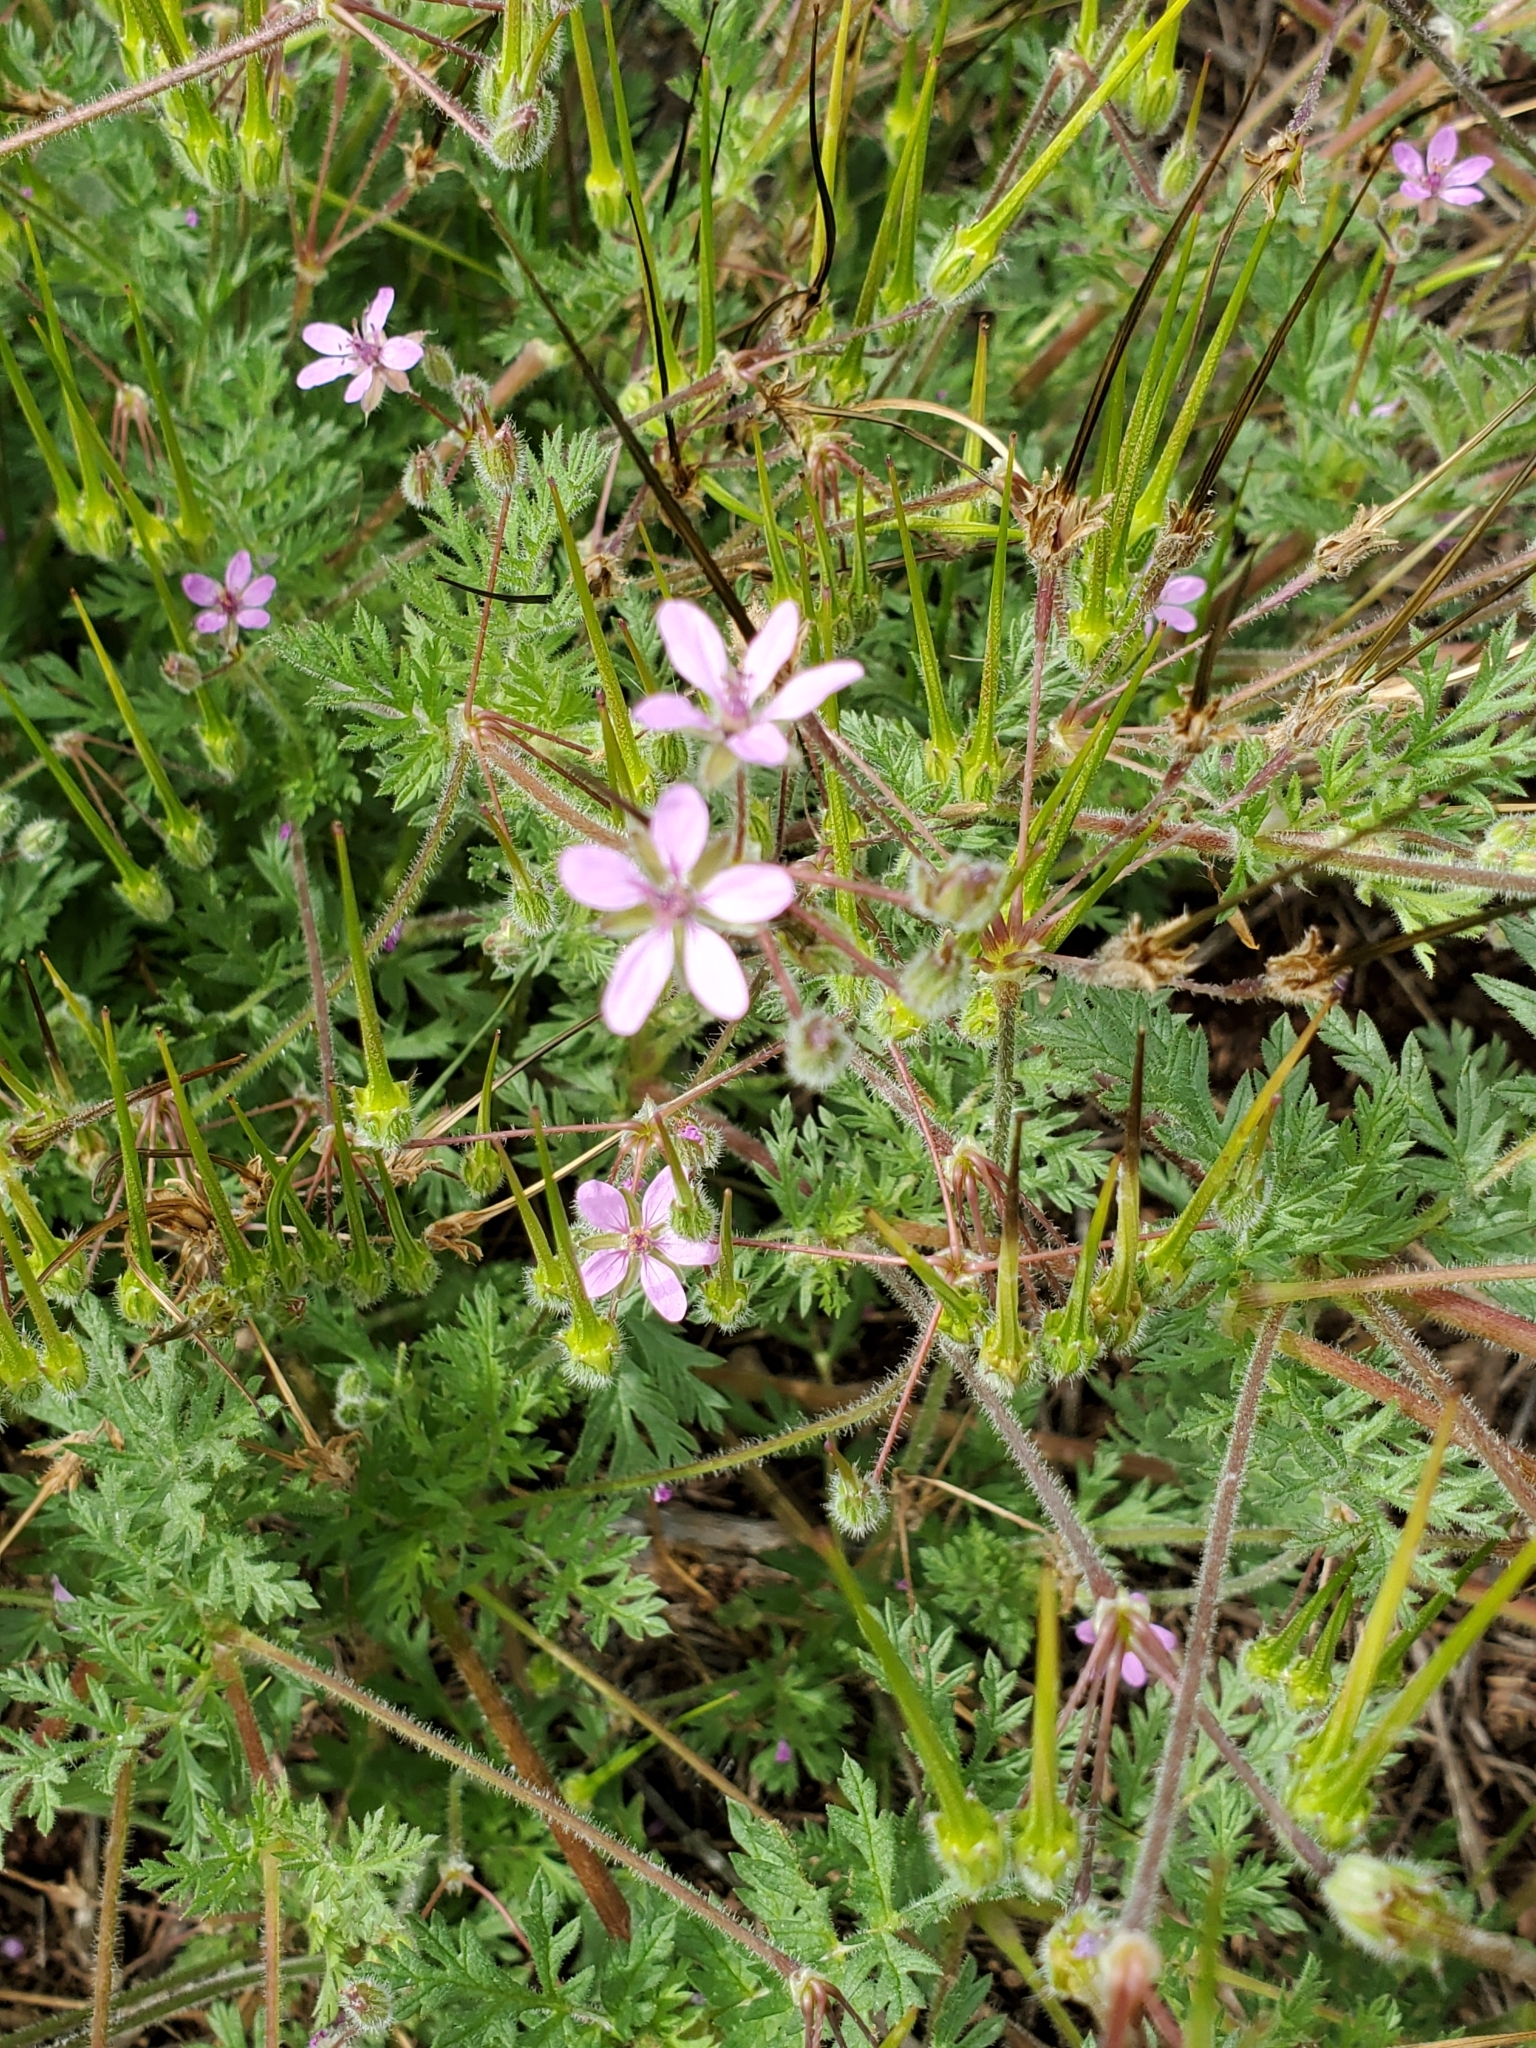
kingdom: Plantae
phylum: Tracheophyta
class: Magnoliopsida
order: Geraniales
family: Geraniaceae
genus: Erodium
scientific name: Erodium cicutarium
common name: Common stork's-bill
